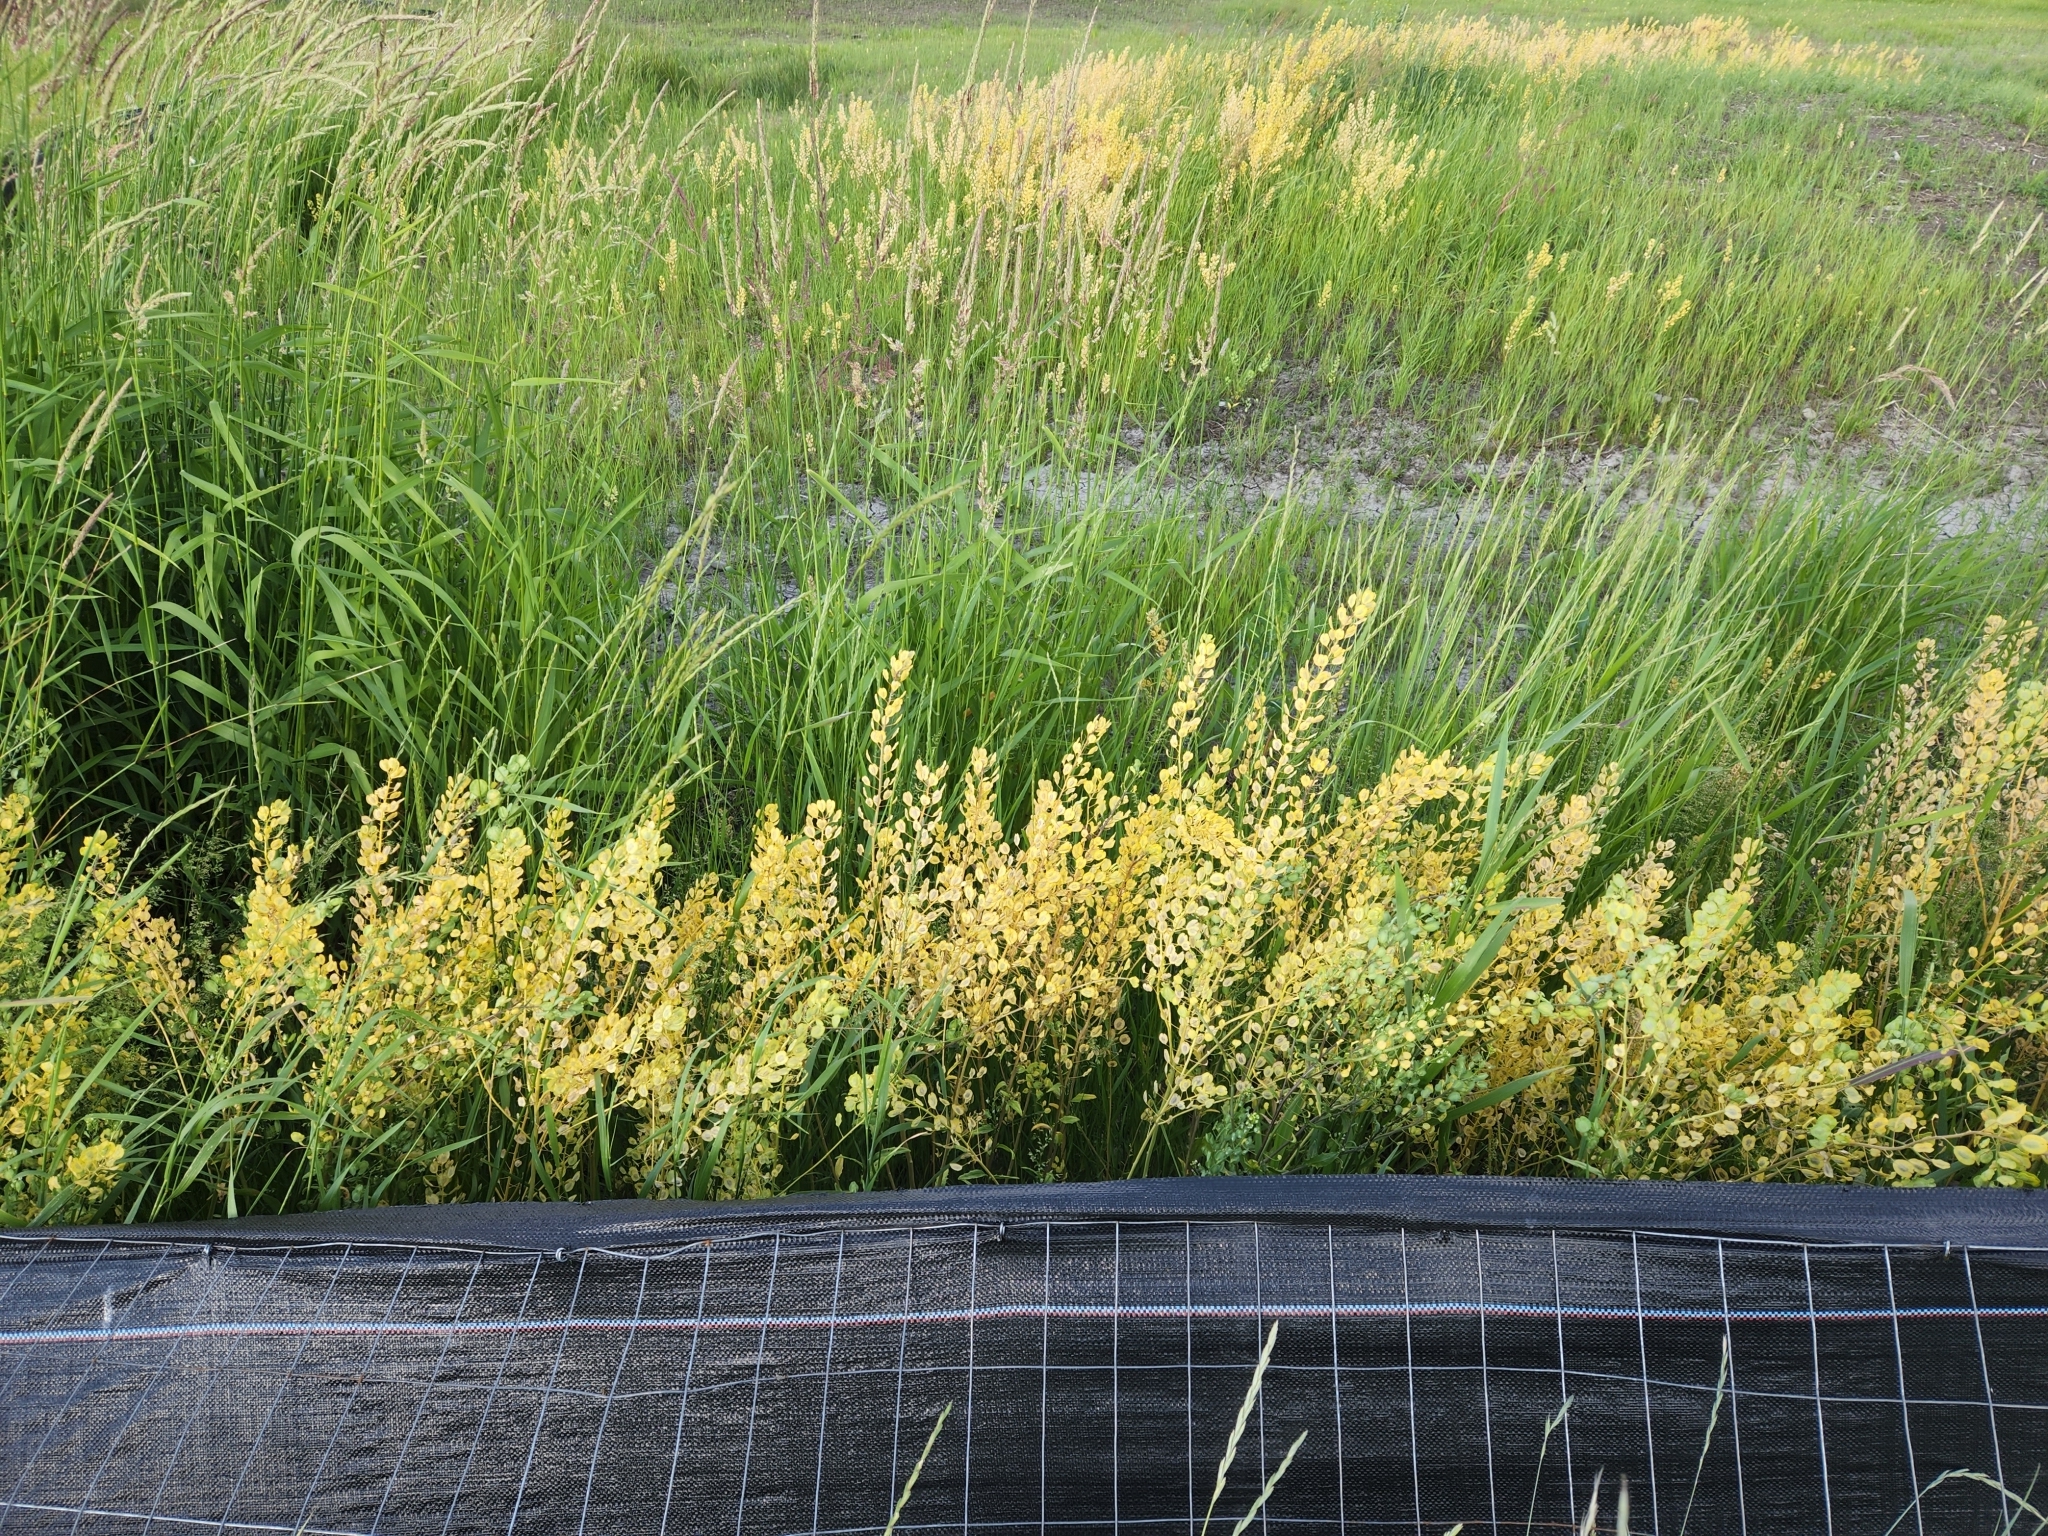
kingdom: Plantae
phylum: Tracheophyta
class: Magnoliopsida
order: Brassicales
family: Brassicaceae
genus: Thlaspi
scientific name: Thlaspi arvense
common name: Field pennycress
